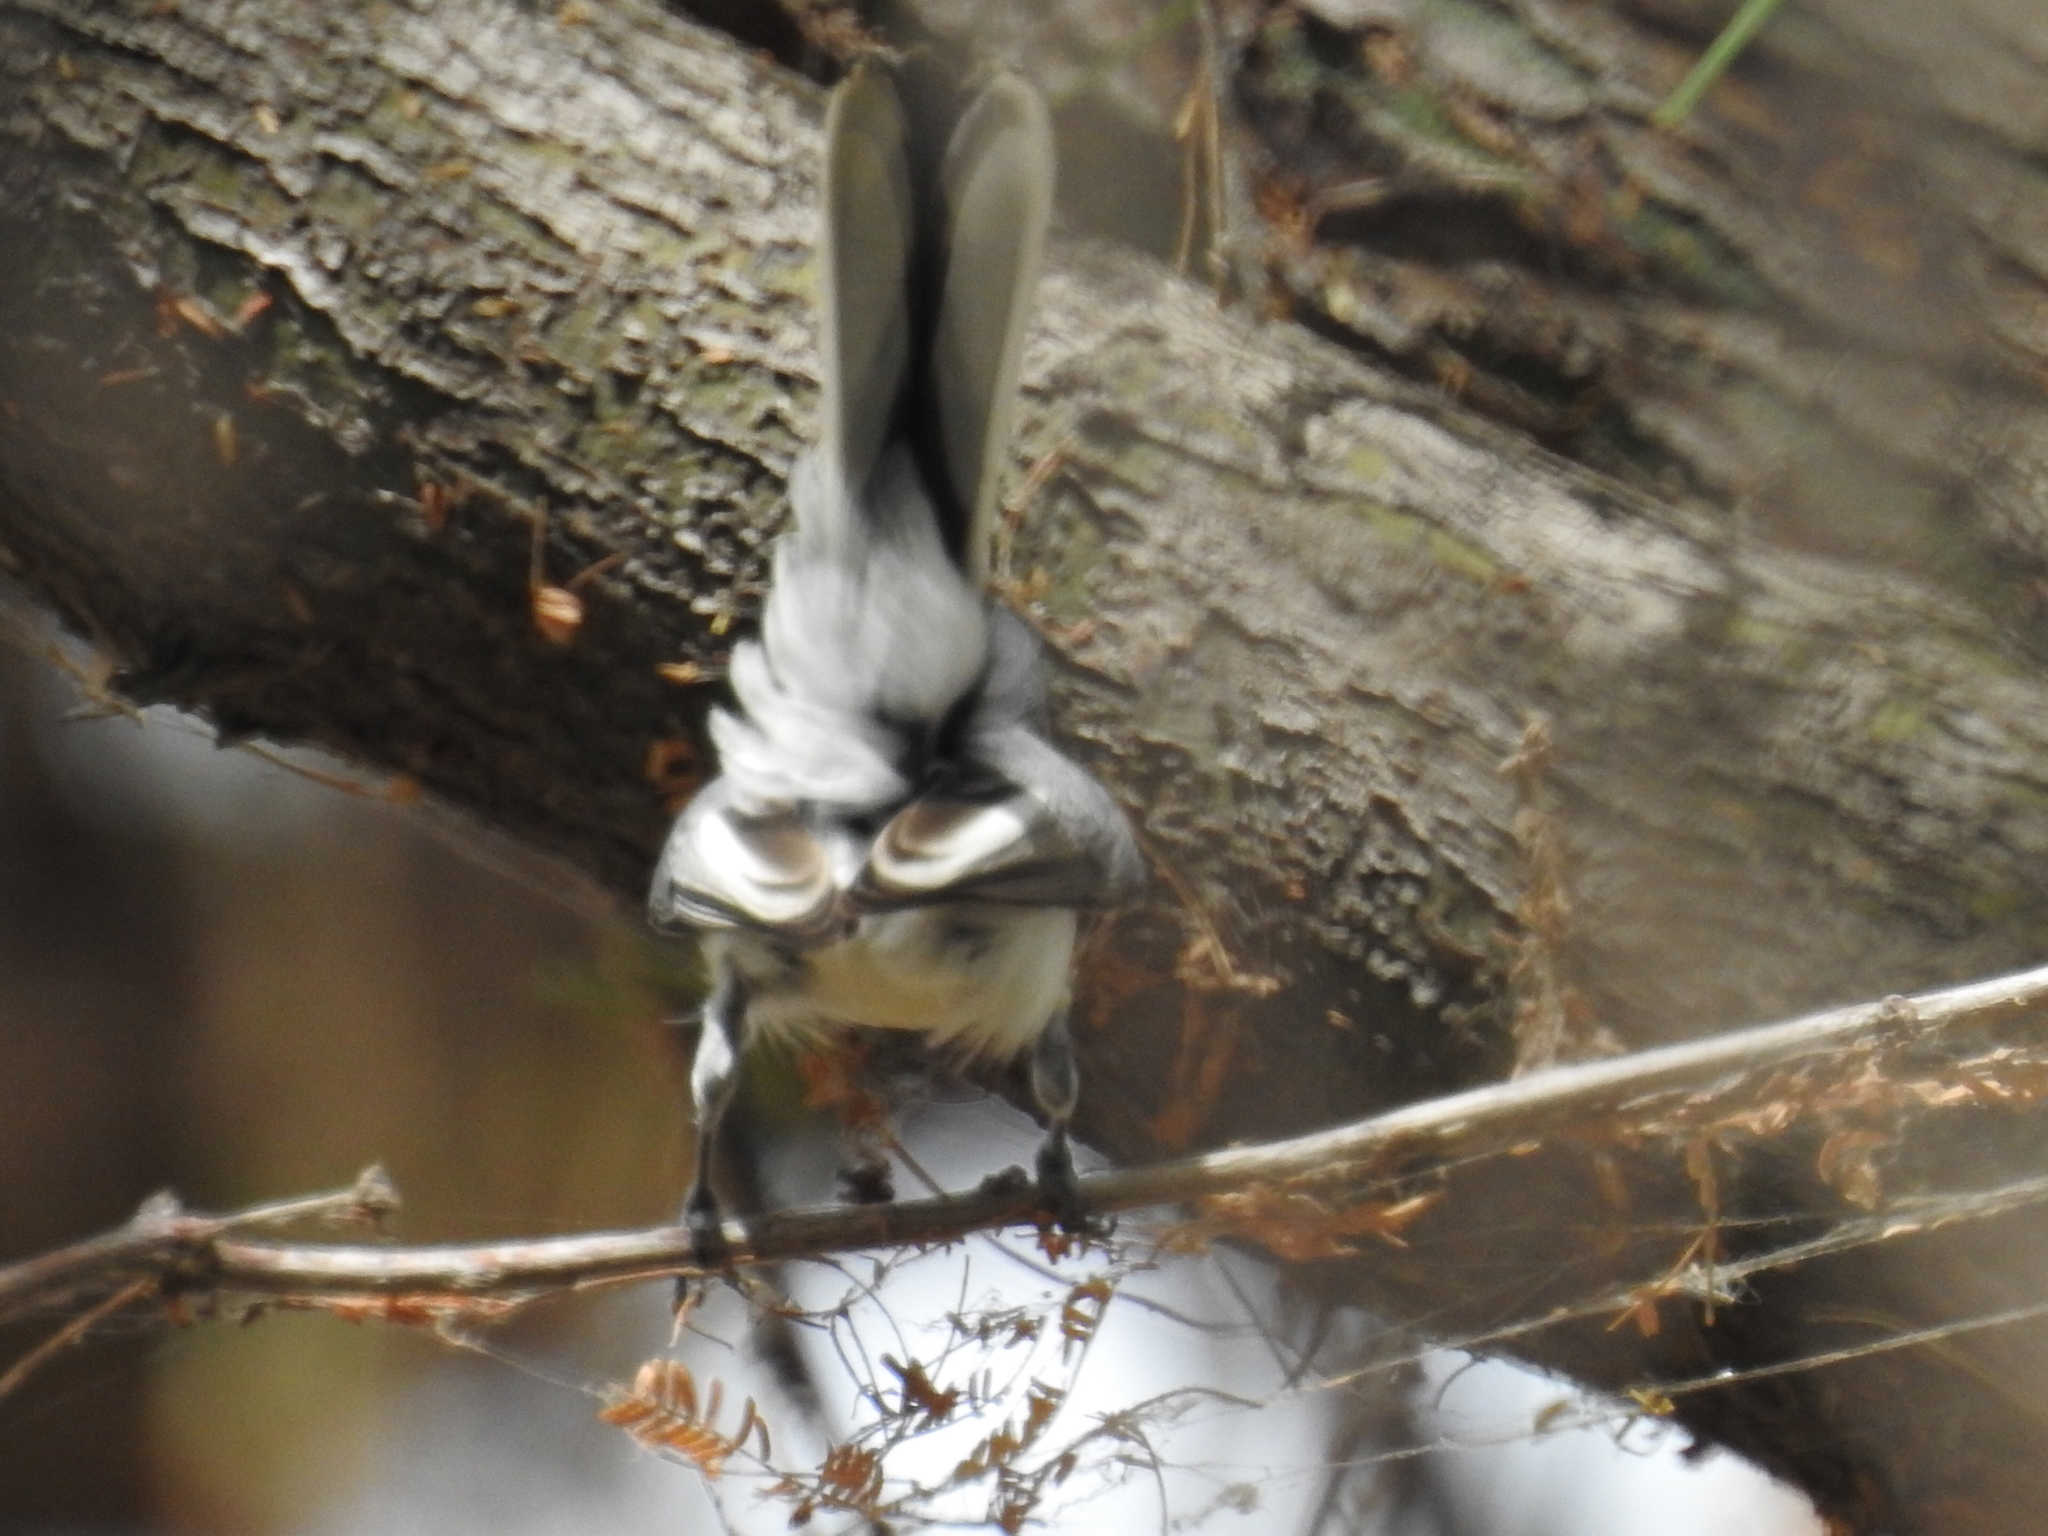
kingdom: Animalia
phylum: Chordata
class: Aves
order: Passeriformes
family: Polioptilidae
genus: Polioptila
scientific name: Polioptila caerulea
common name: Blue-gray gnatcatcher
